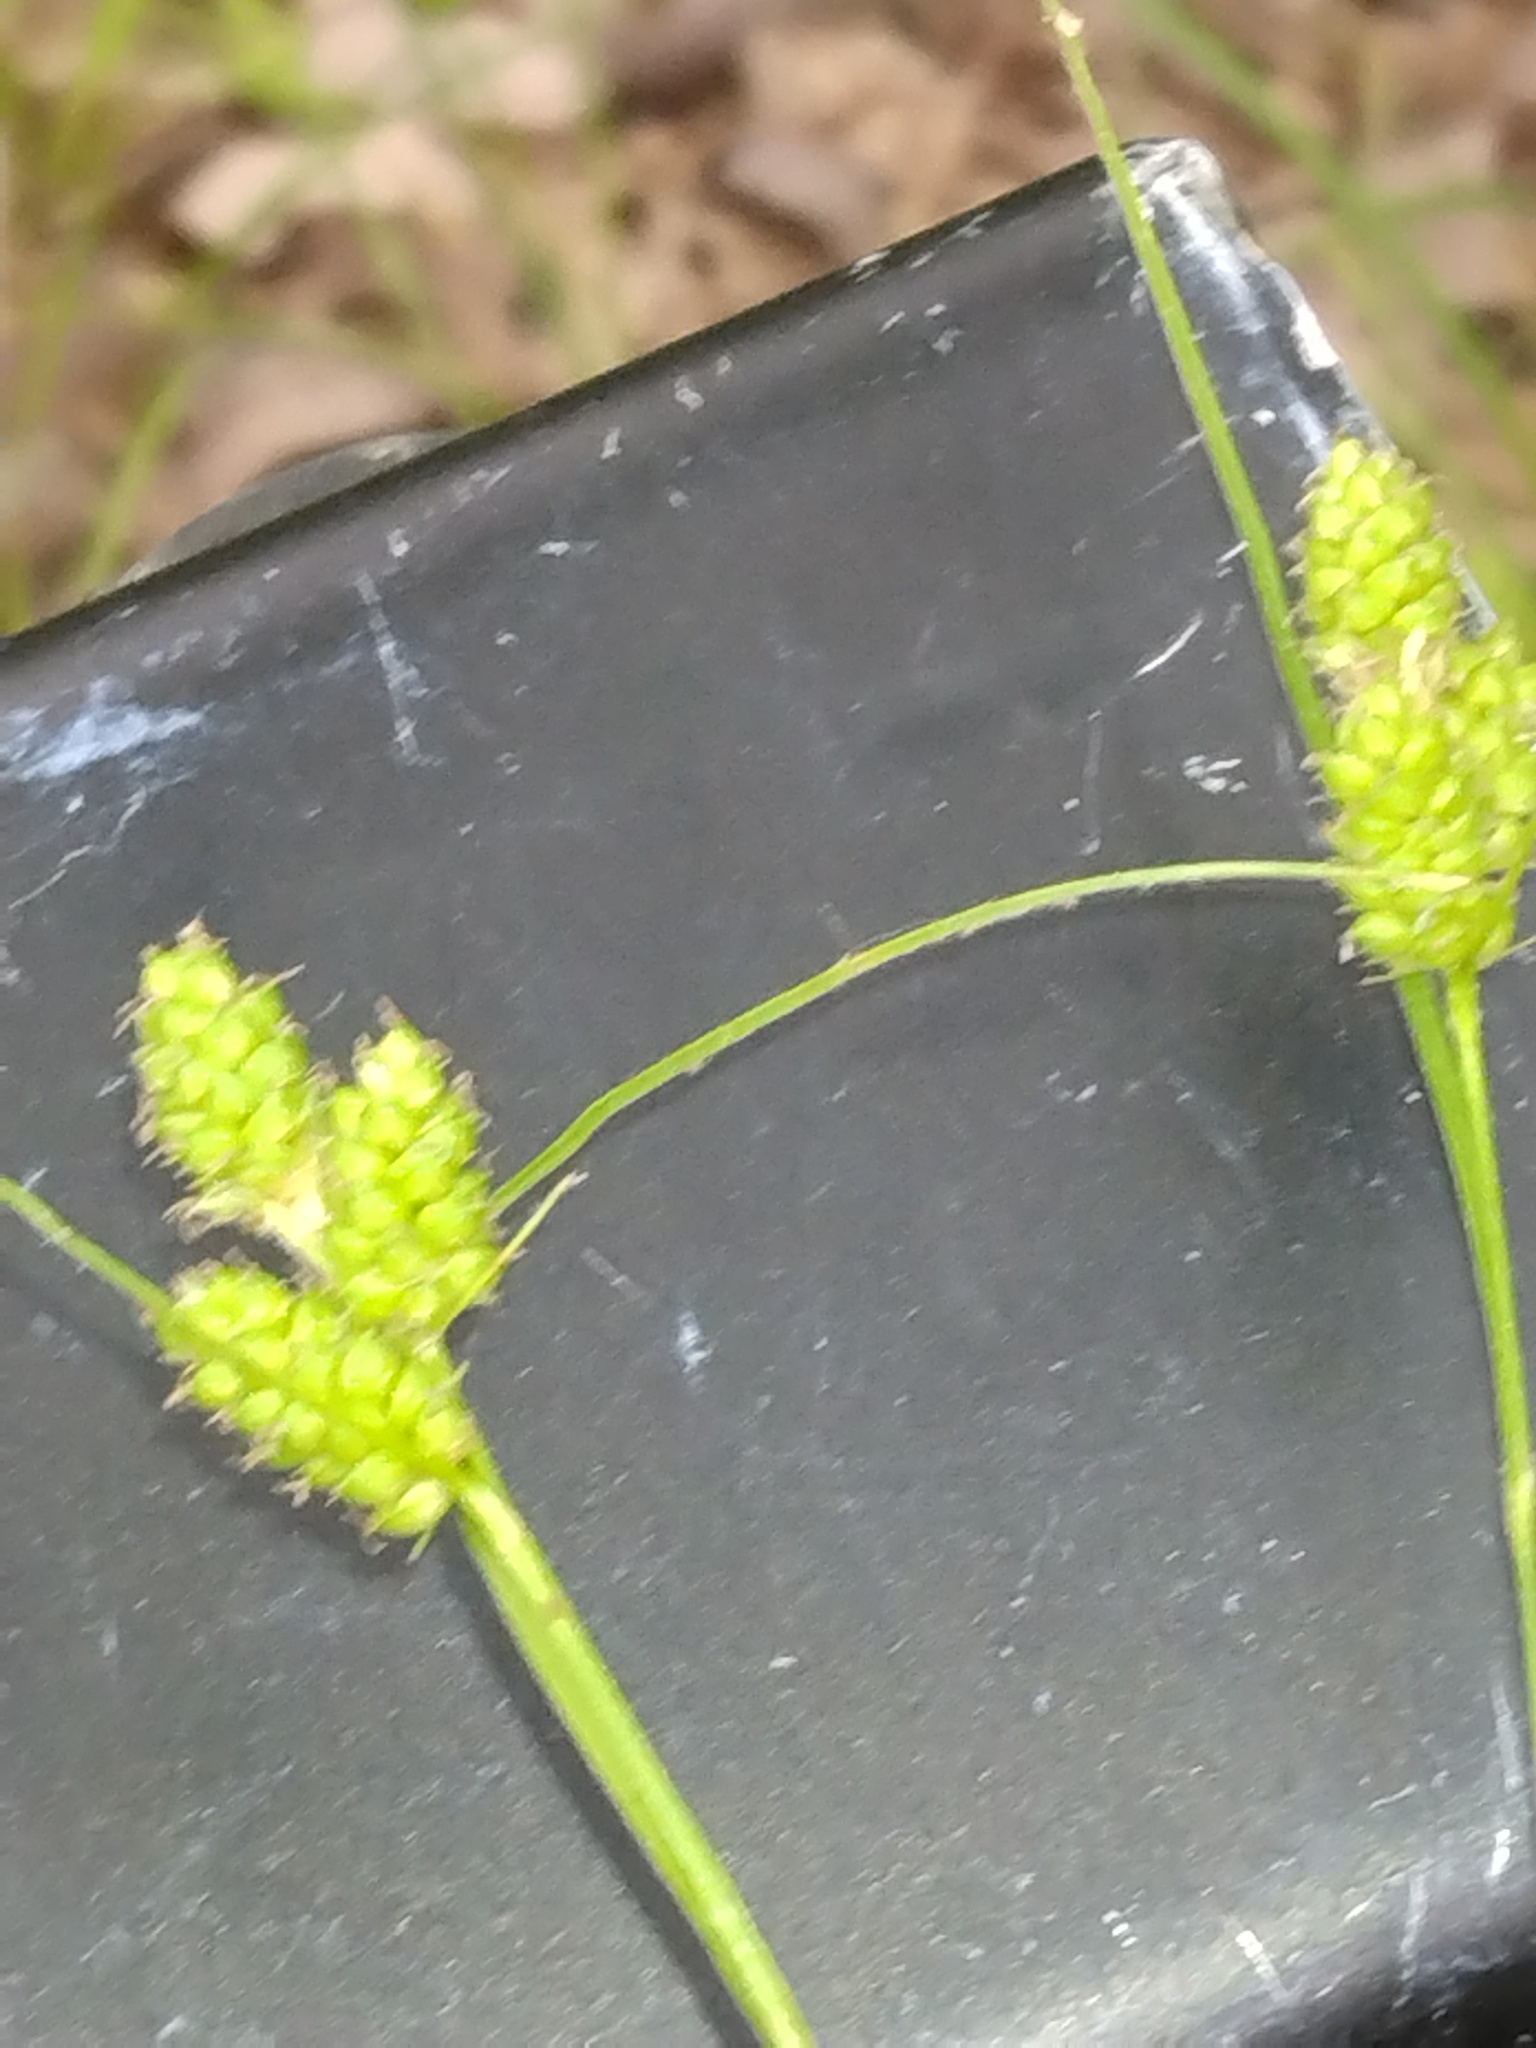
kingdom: Plantae
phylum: Tracheophyta
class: Liliopsida
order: Poales
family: Cyperaceae
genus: Carex
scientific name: Carex hirsutella
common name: Fuzzy wuzzy sedge
